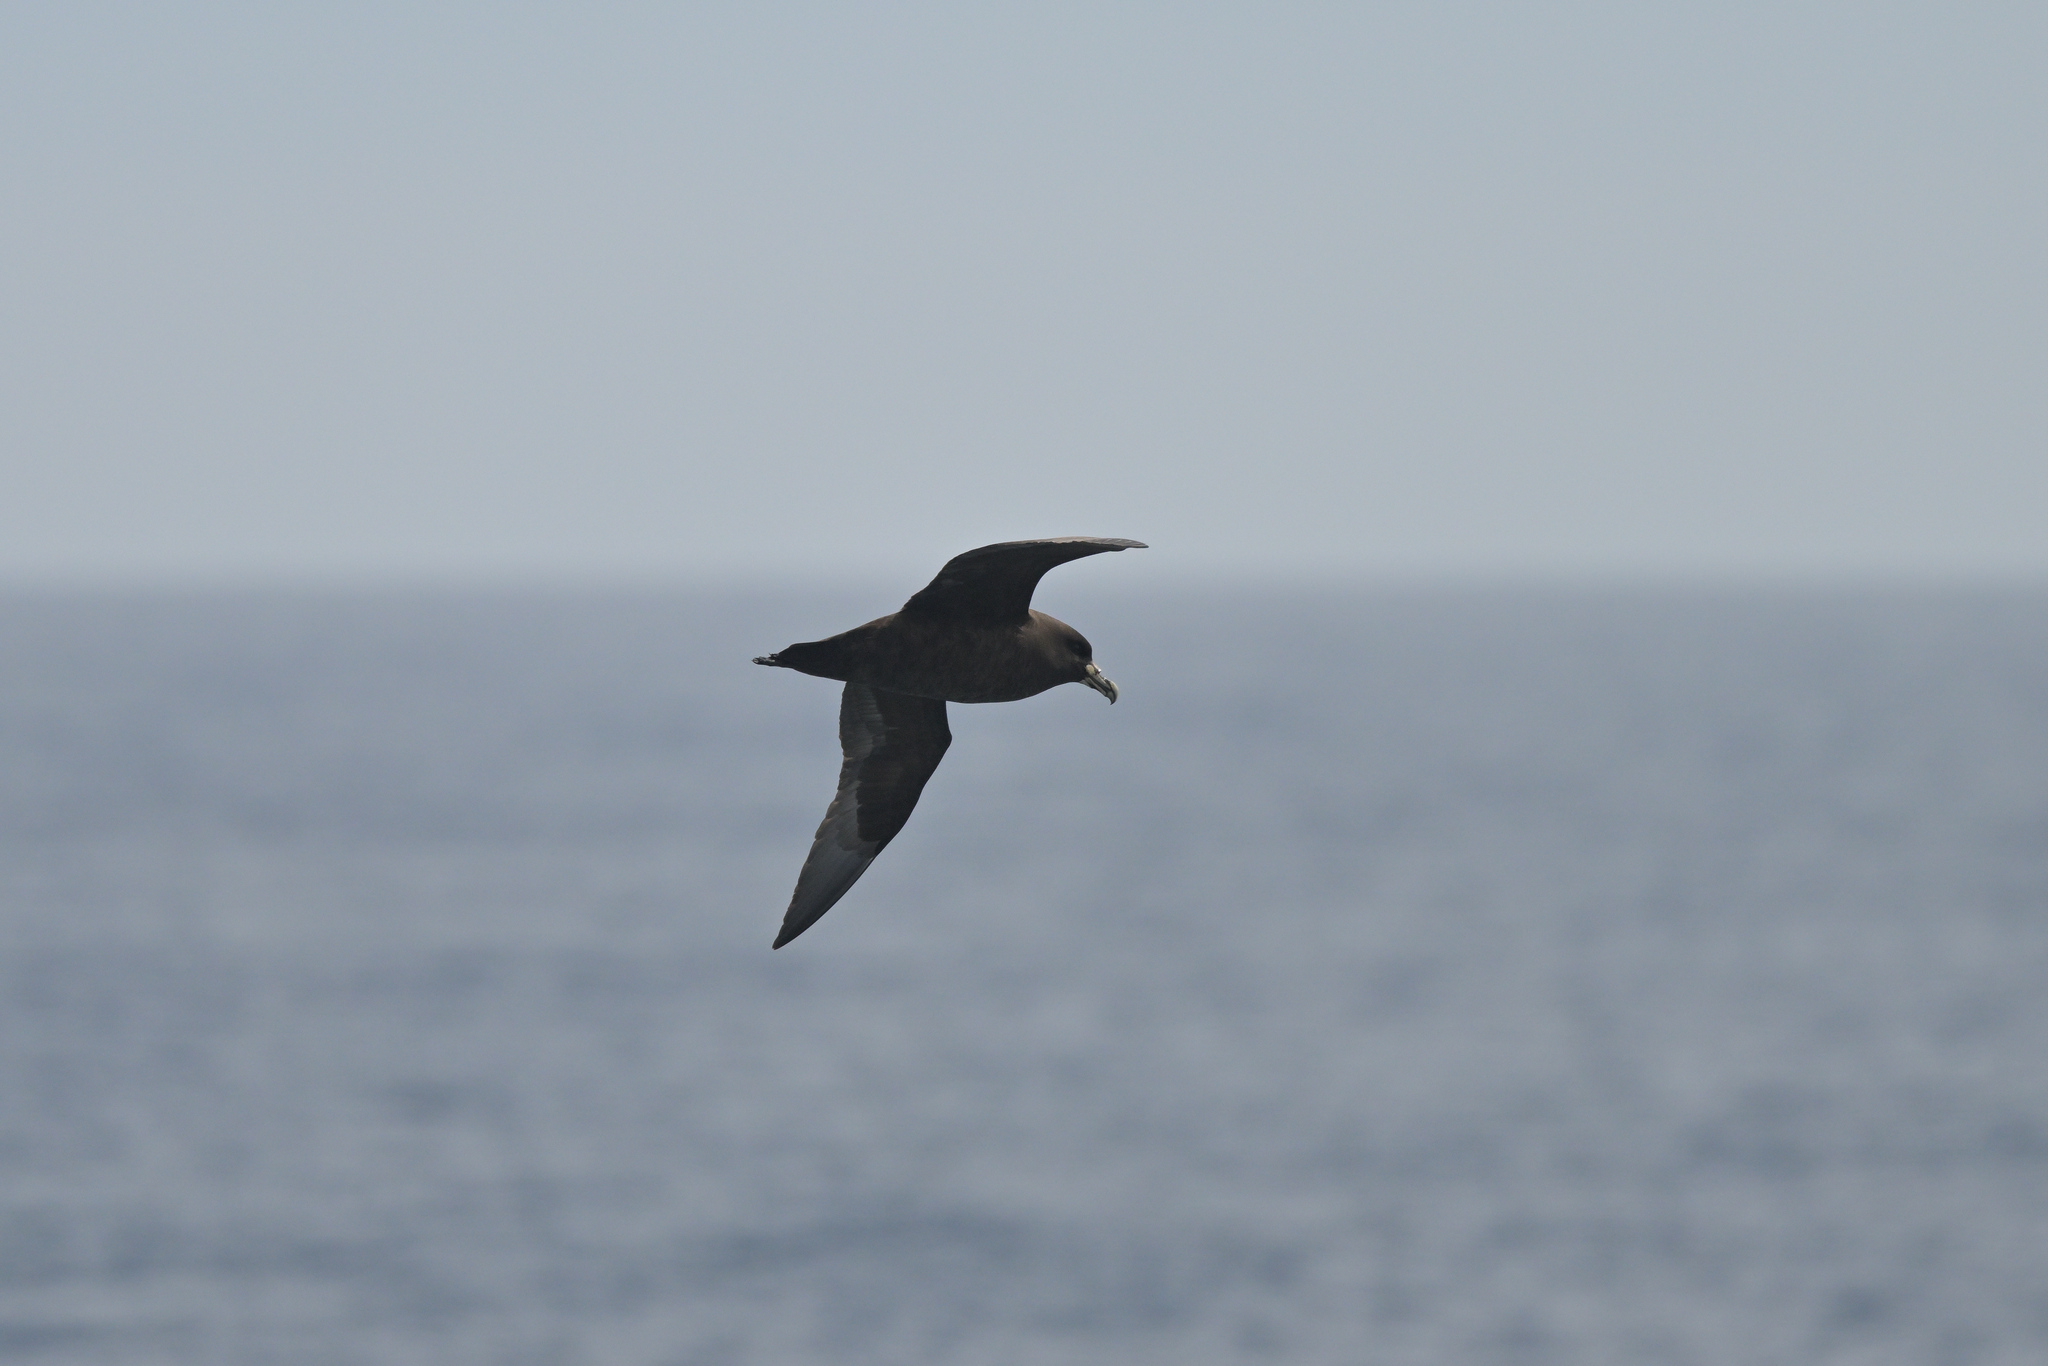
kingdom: Animalia
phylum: Chordata
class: Aves
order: Procellariiformes
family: Procellariidae
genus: Procellaria
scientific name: Procellaria aequinoctialis
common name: White-chinned petrel
